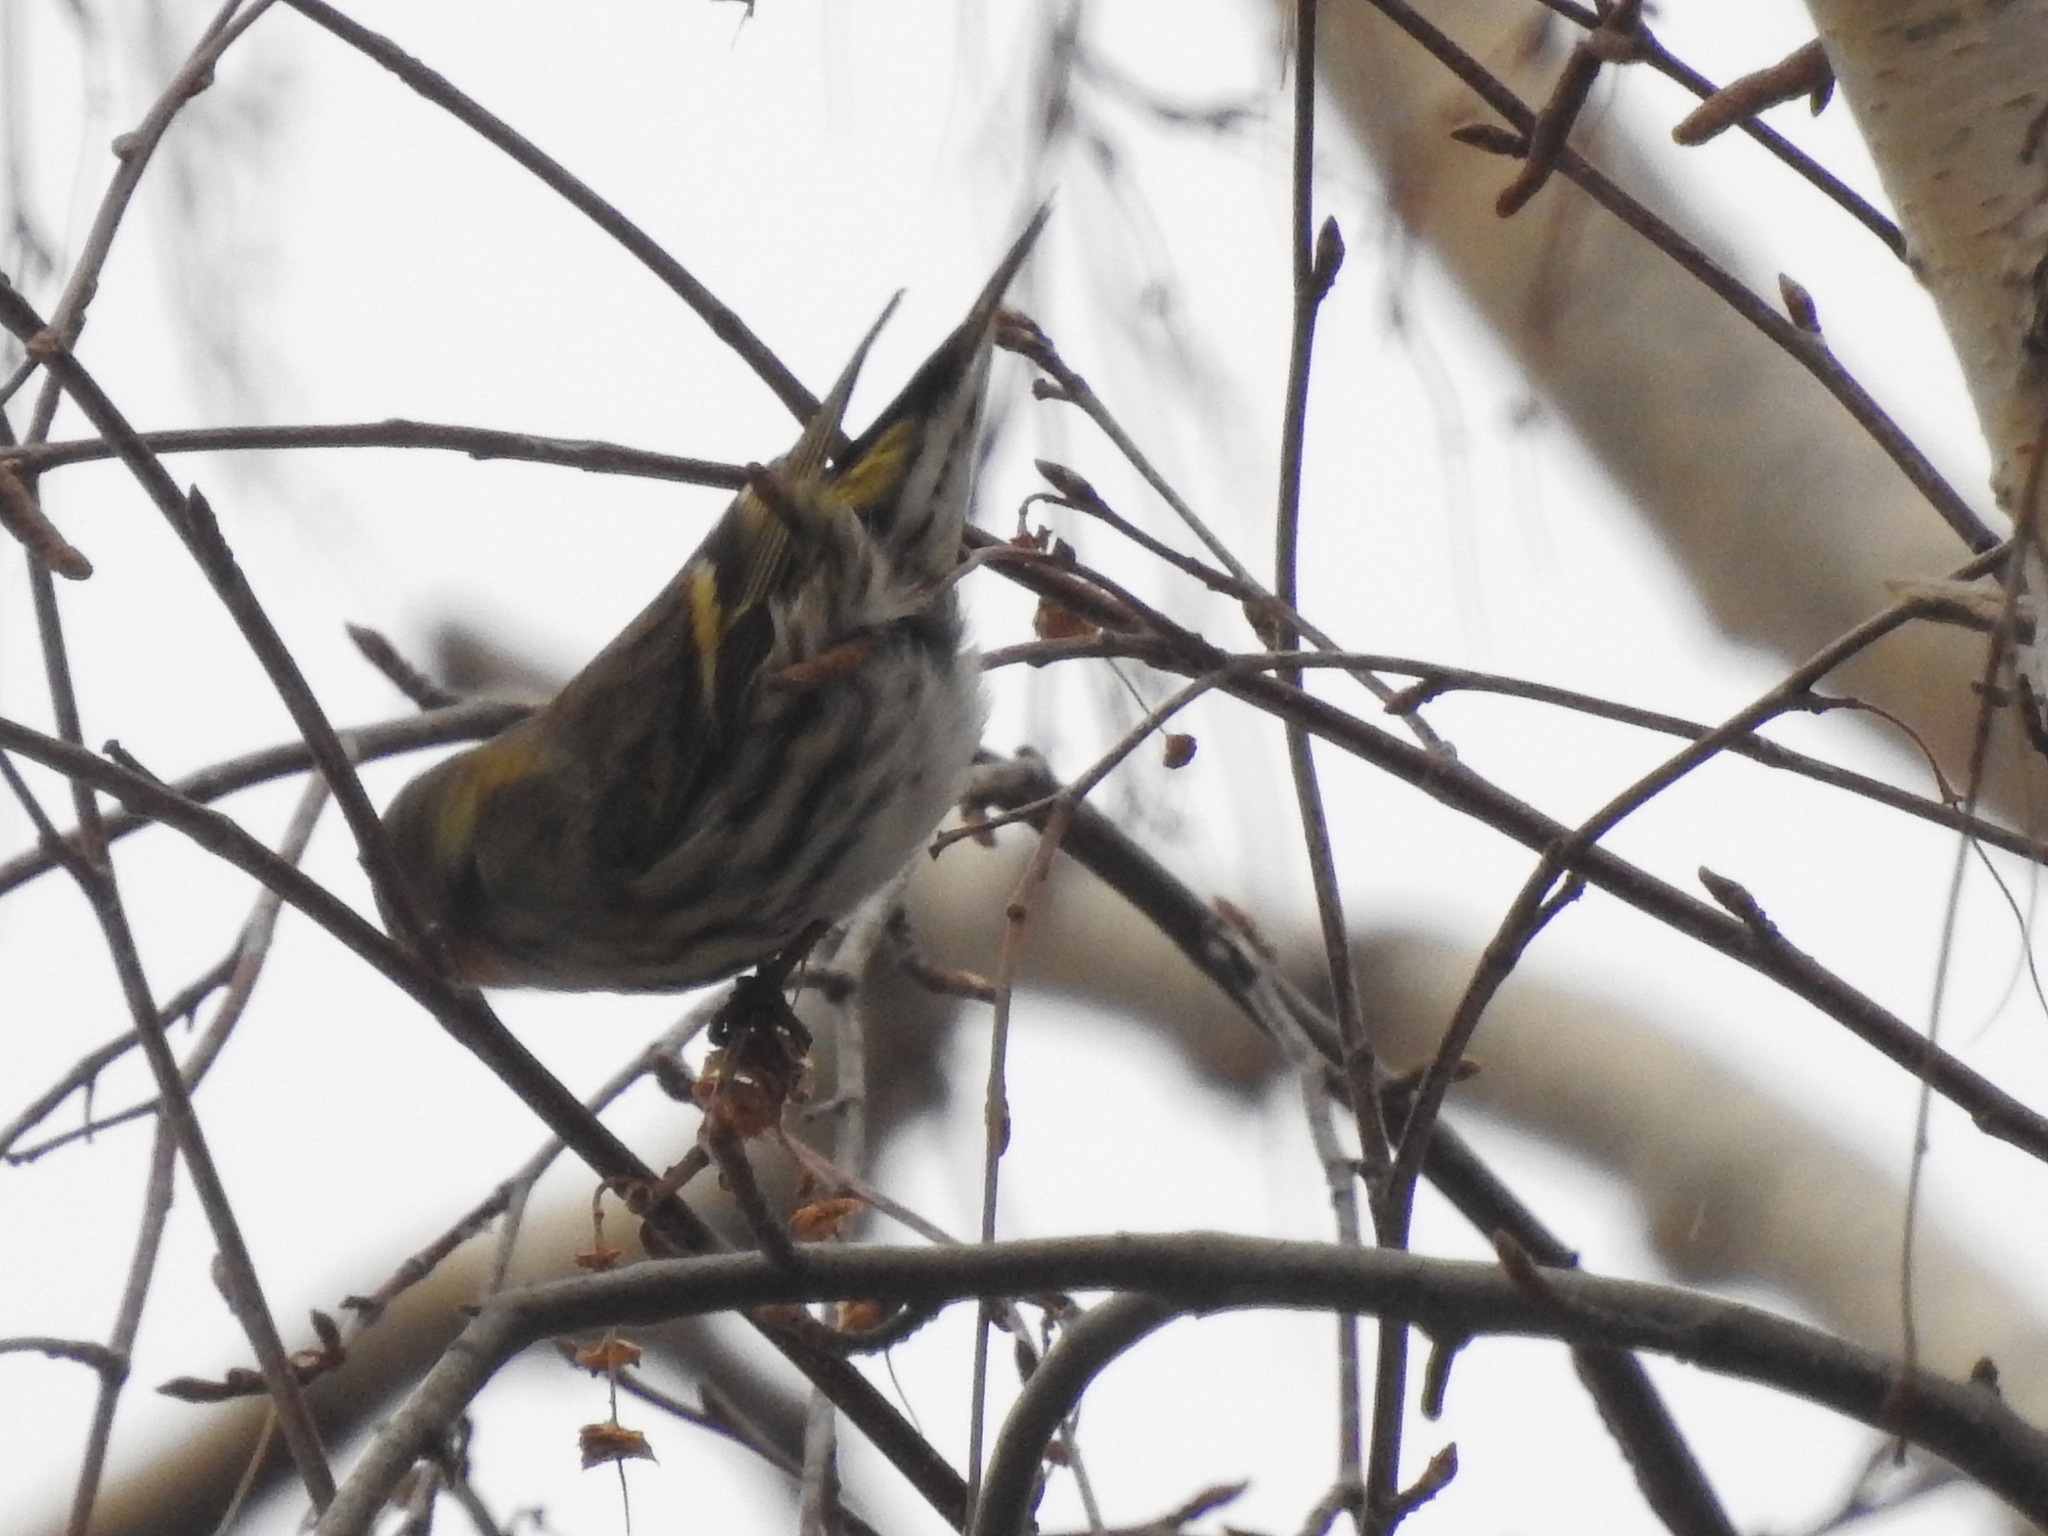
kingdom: Animalia
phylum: Chordata
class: Aves
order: Passeriformes
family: Fringillidae
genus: Spinus
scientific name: Spinus spinus
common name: Eurasian siskin
